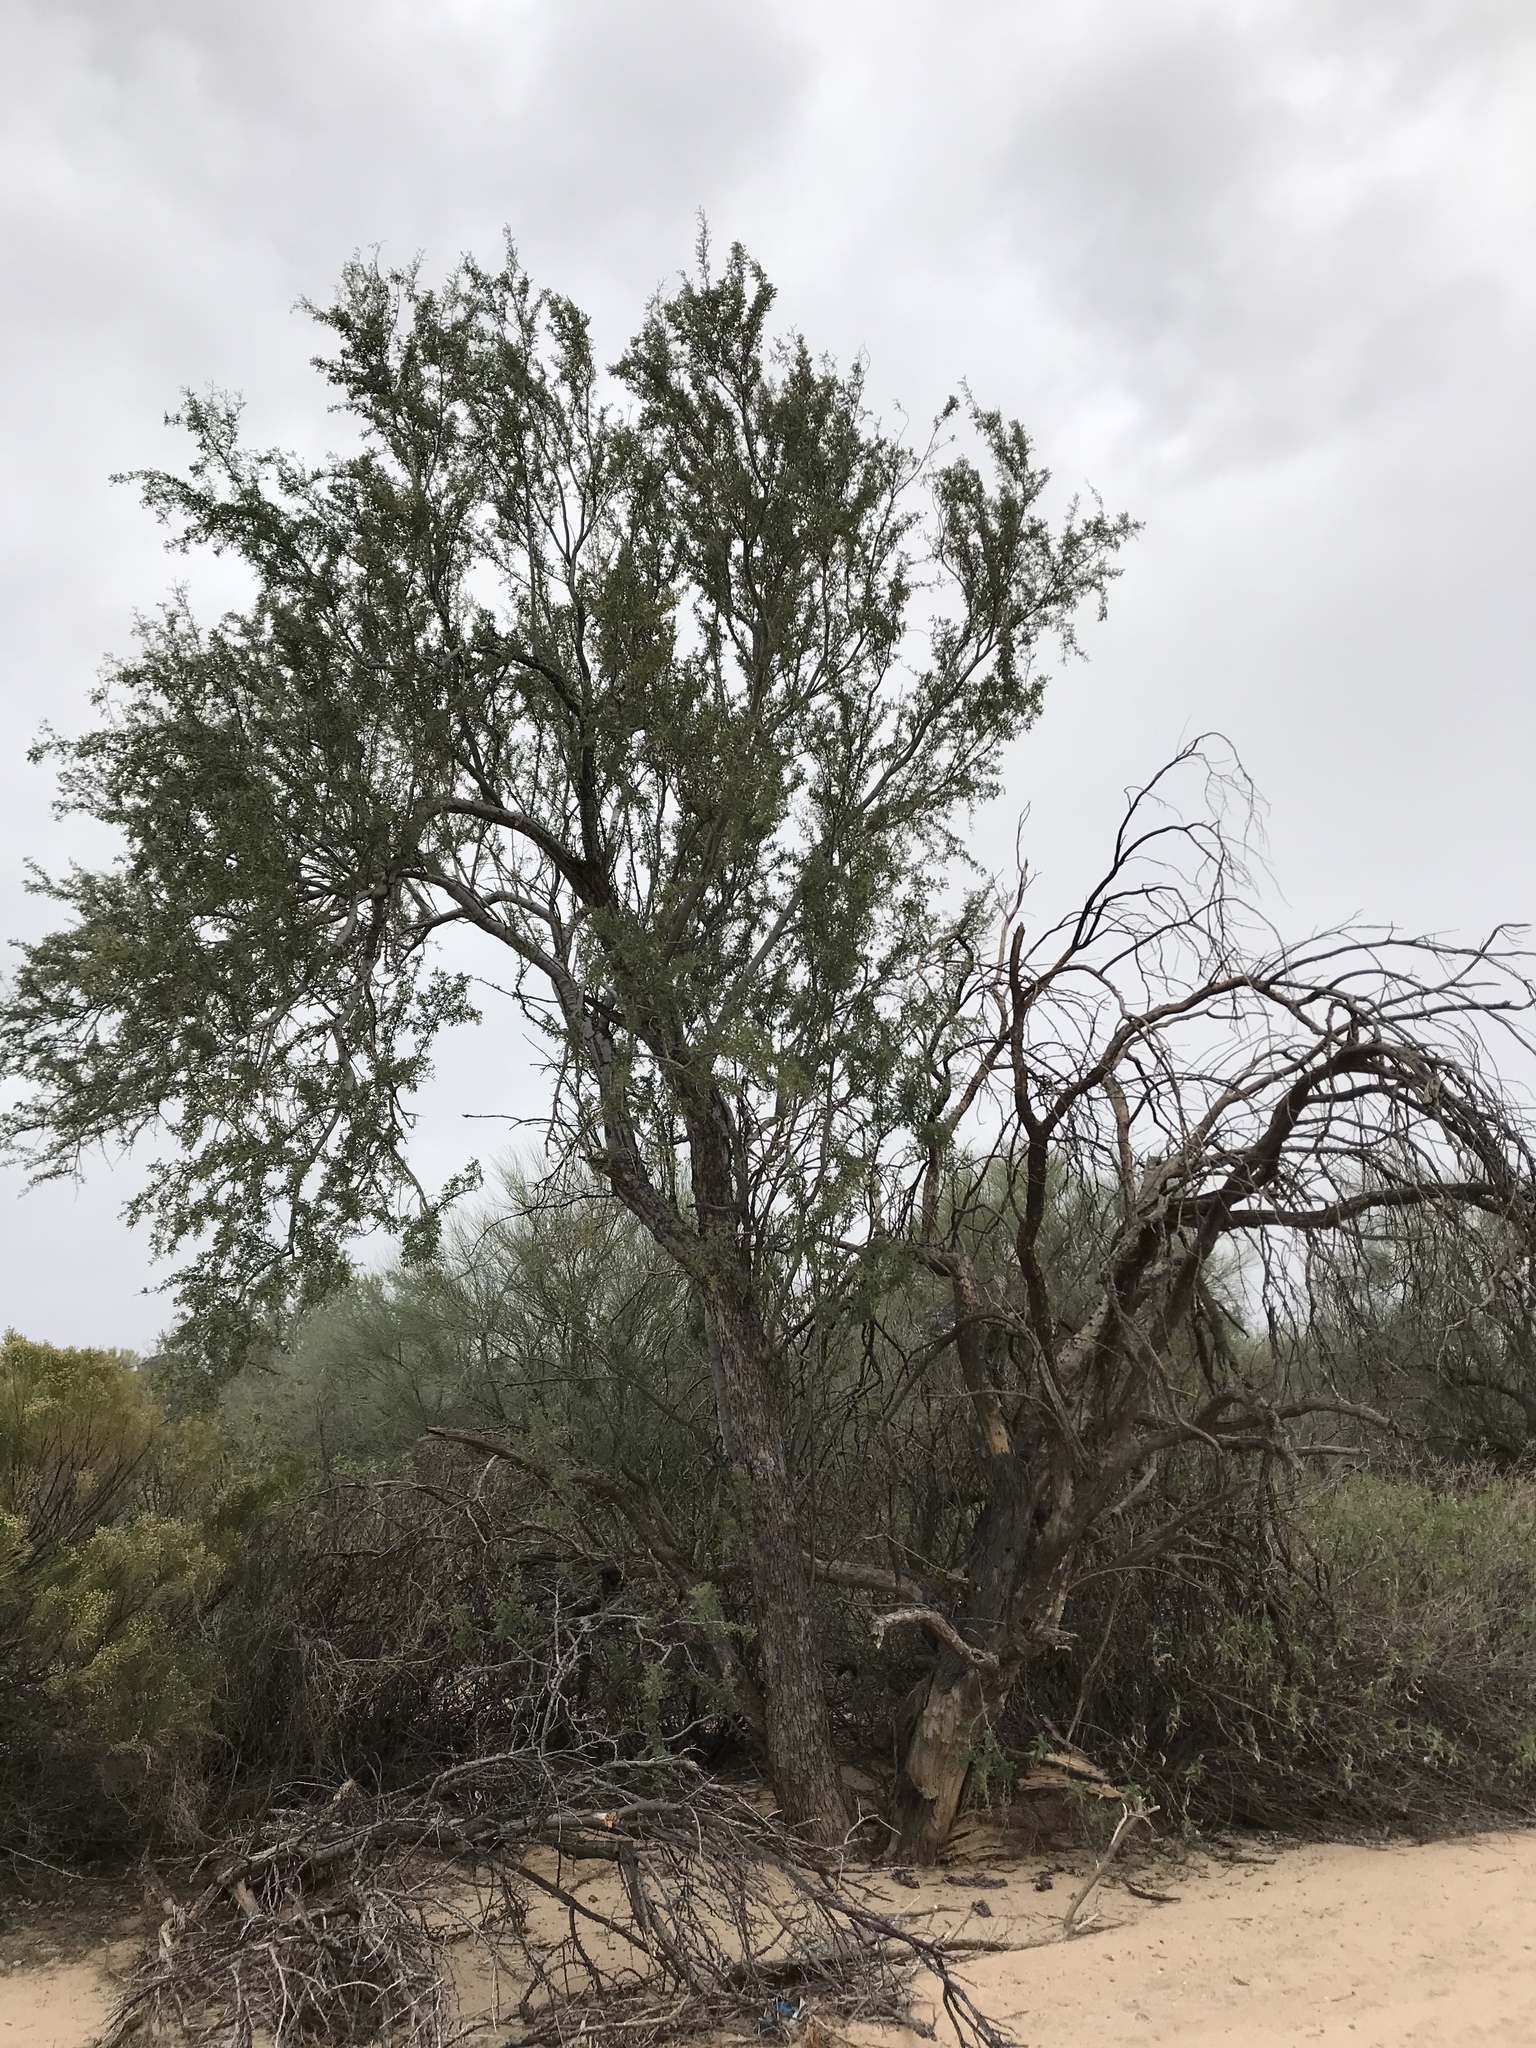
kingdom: Plantae
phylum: Tracheophyta
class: Magnoliopsida
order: Fabales
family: Fabaceae
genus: Olneya
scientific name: Olneya tesota
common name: Desert ironwood
